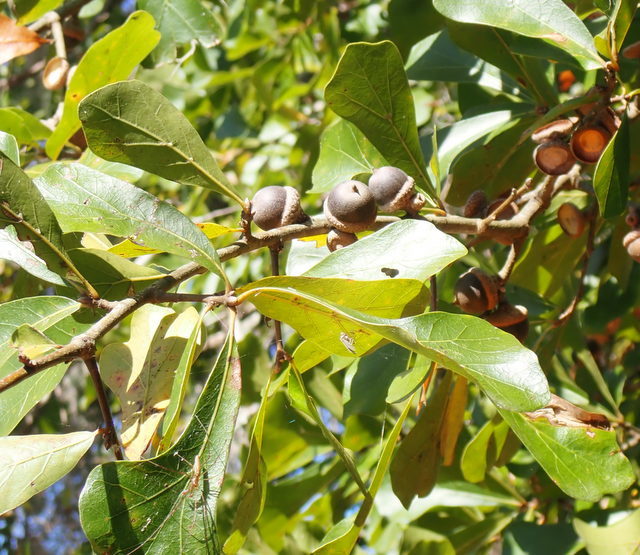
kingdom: Plantae
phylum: Tracheophyta
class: Magnoliopsida
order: Fagales
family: Fagaceae
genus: Quercus
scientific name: Quercus nigra
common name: Water oak
